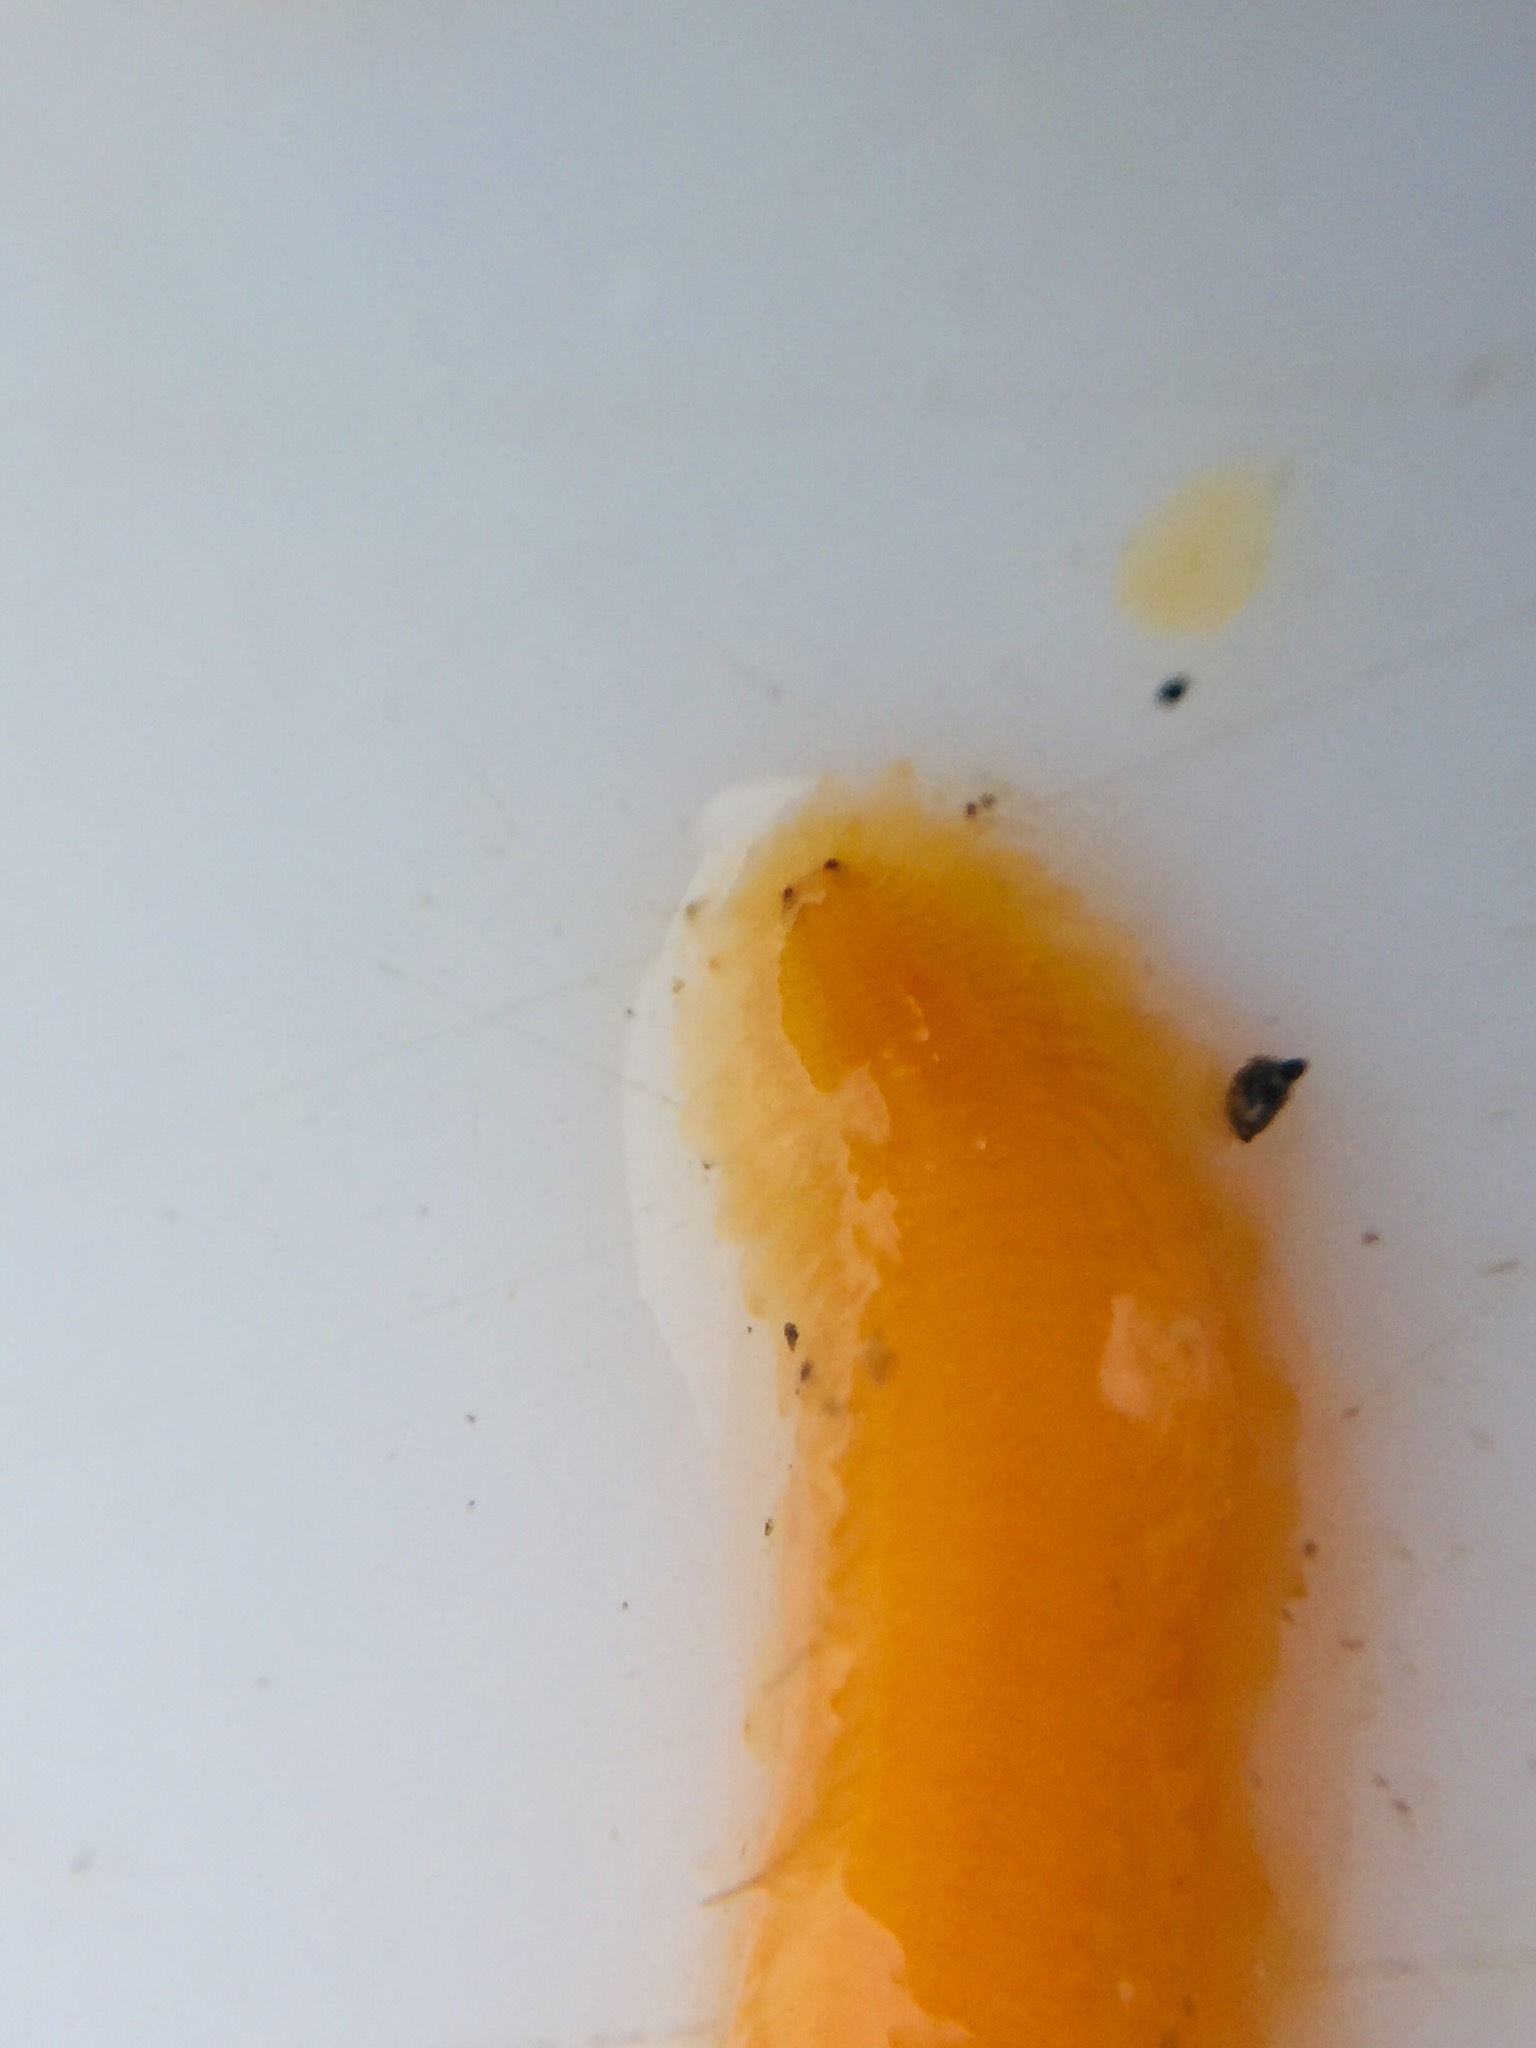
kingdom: Animalia
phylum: Annelida
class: Polychaeta
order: Phyllodocida
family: Syllidae
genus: Clavisyllis
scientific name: Clavisyllis alternata
